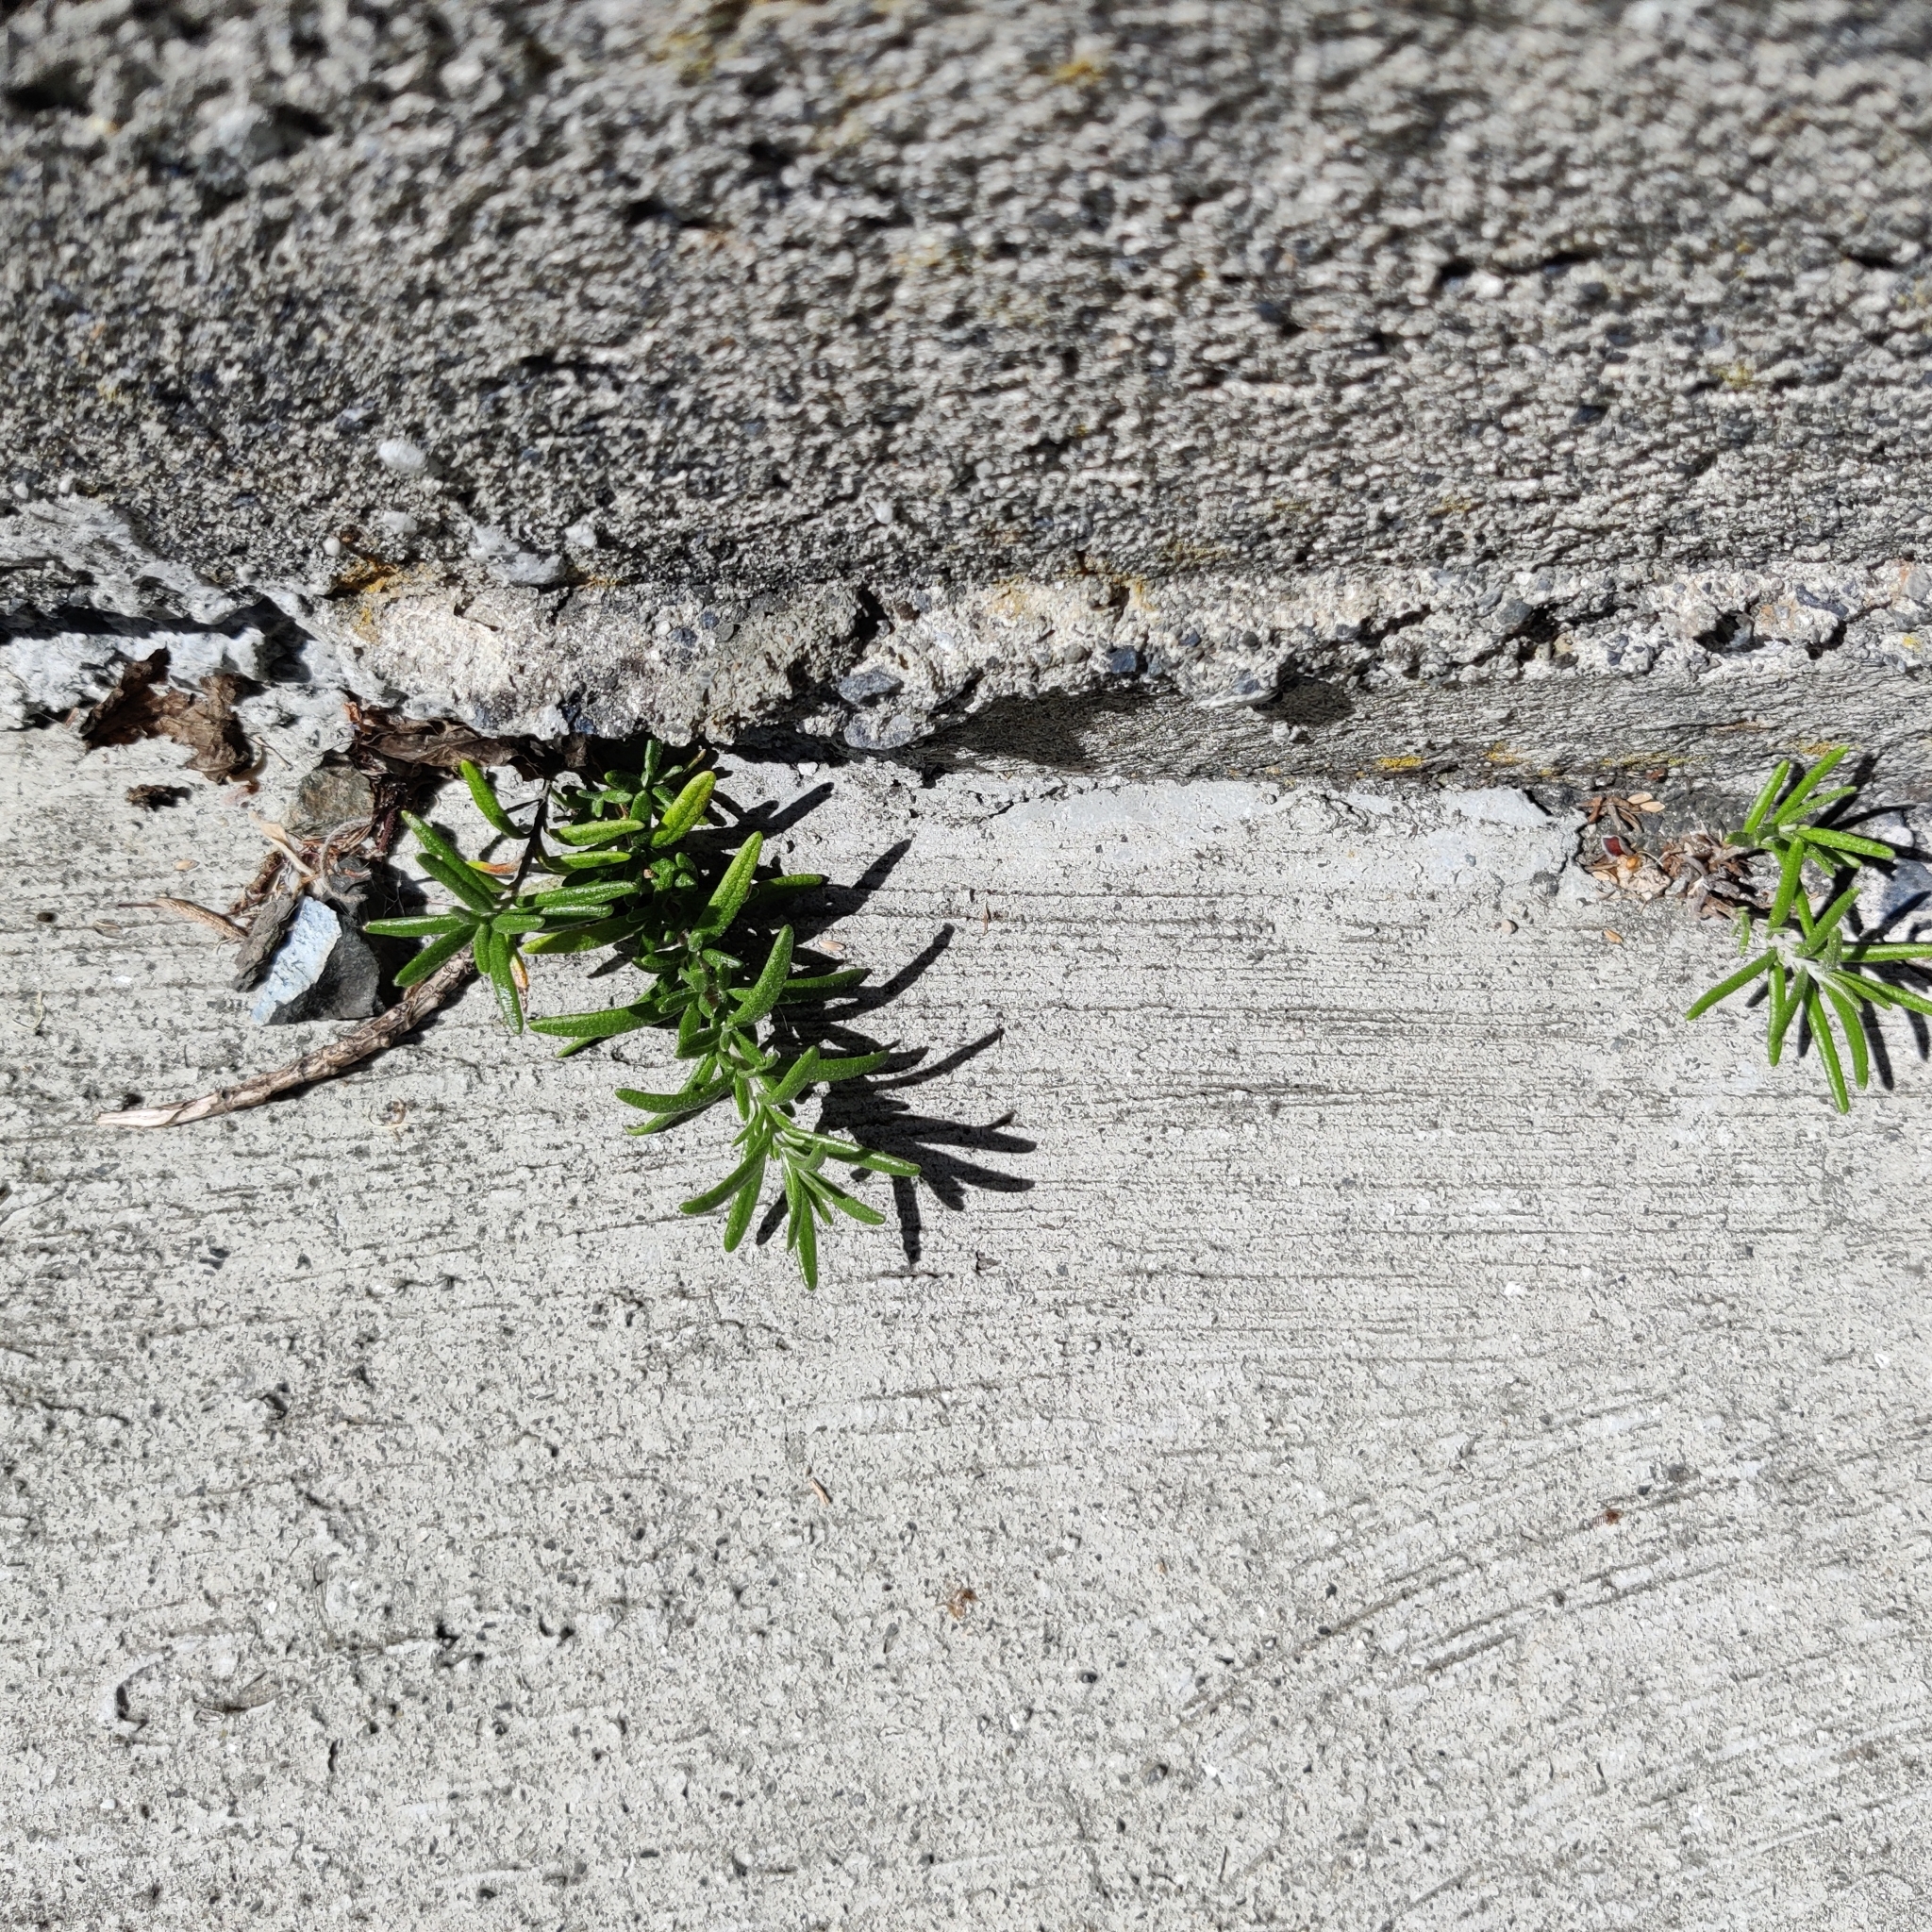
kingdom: Plantae
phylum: Tracheophyta
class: Magnoliopsida
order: Lamiales
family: Lamiaceae
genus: Salvia
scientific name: Salvia rosmarinus
